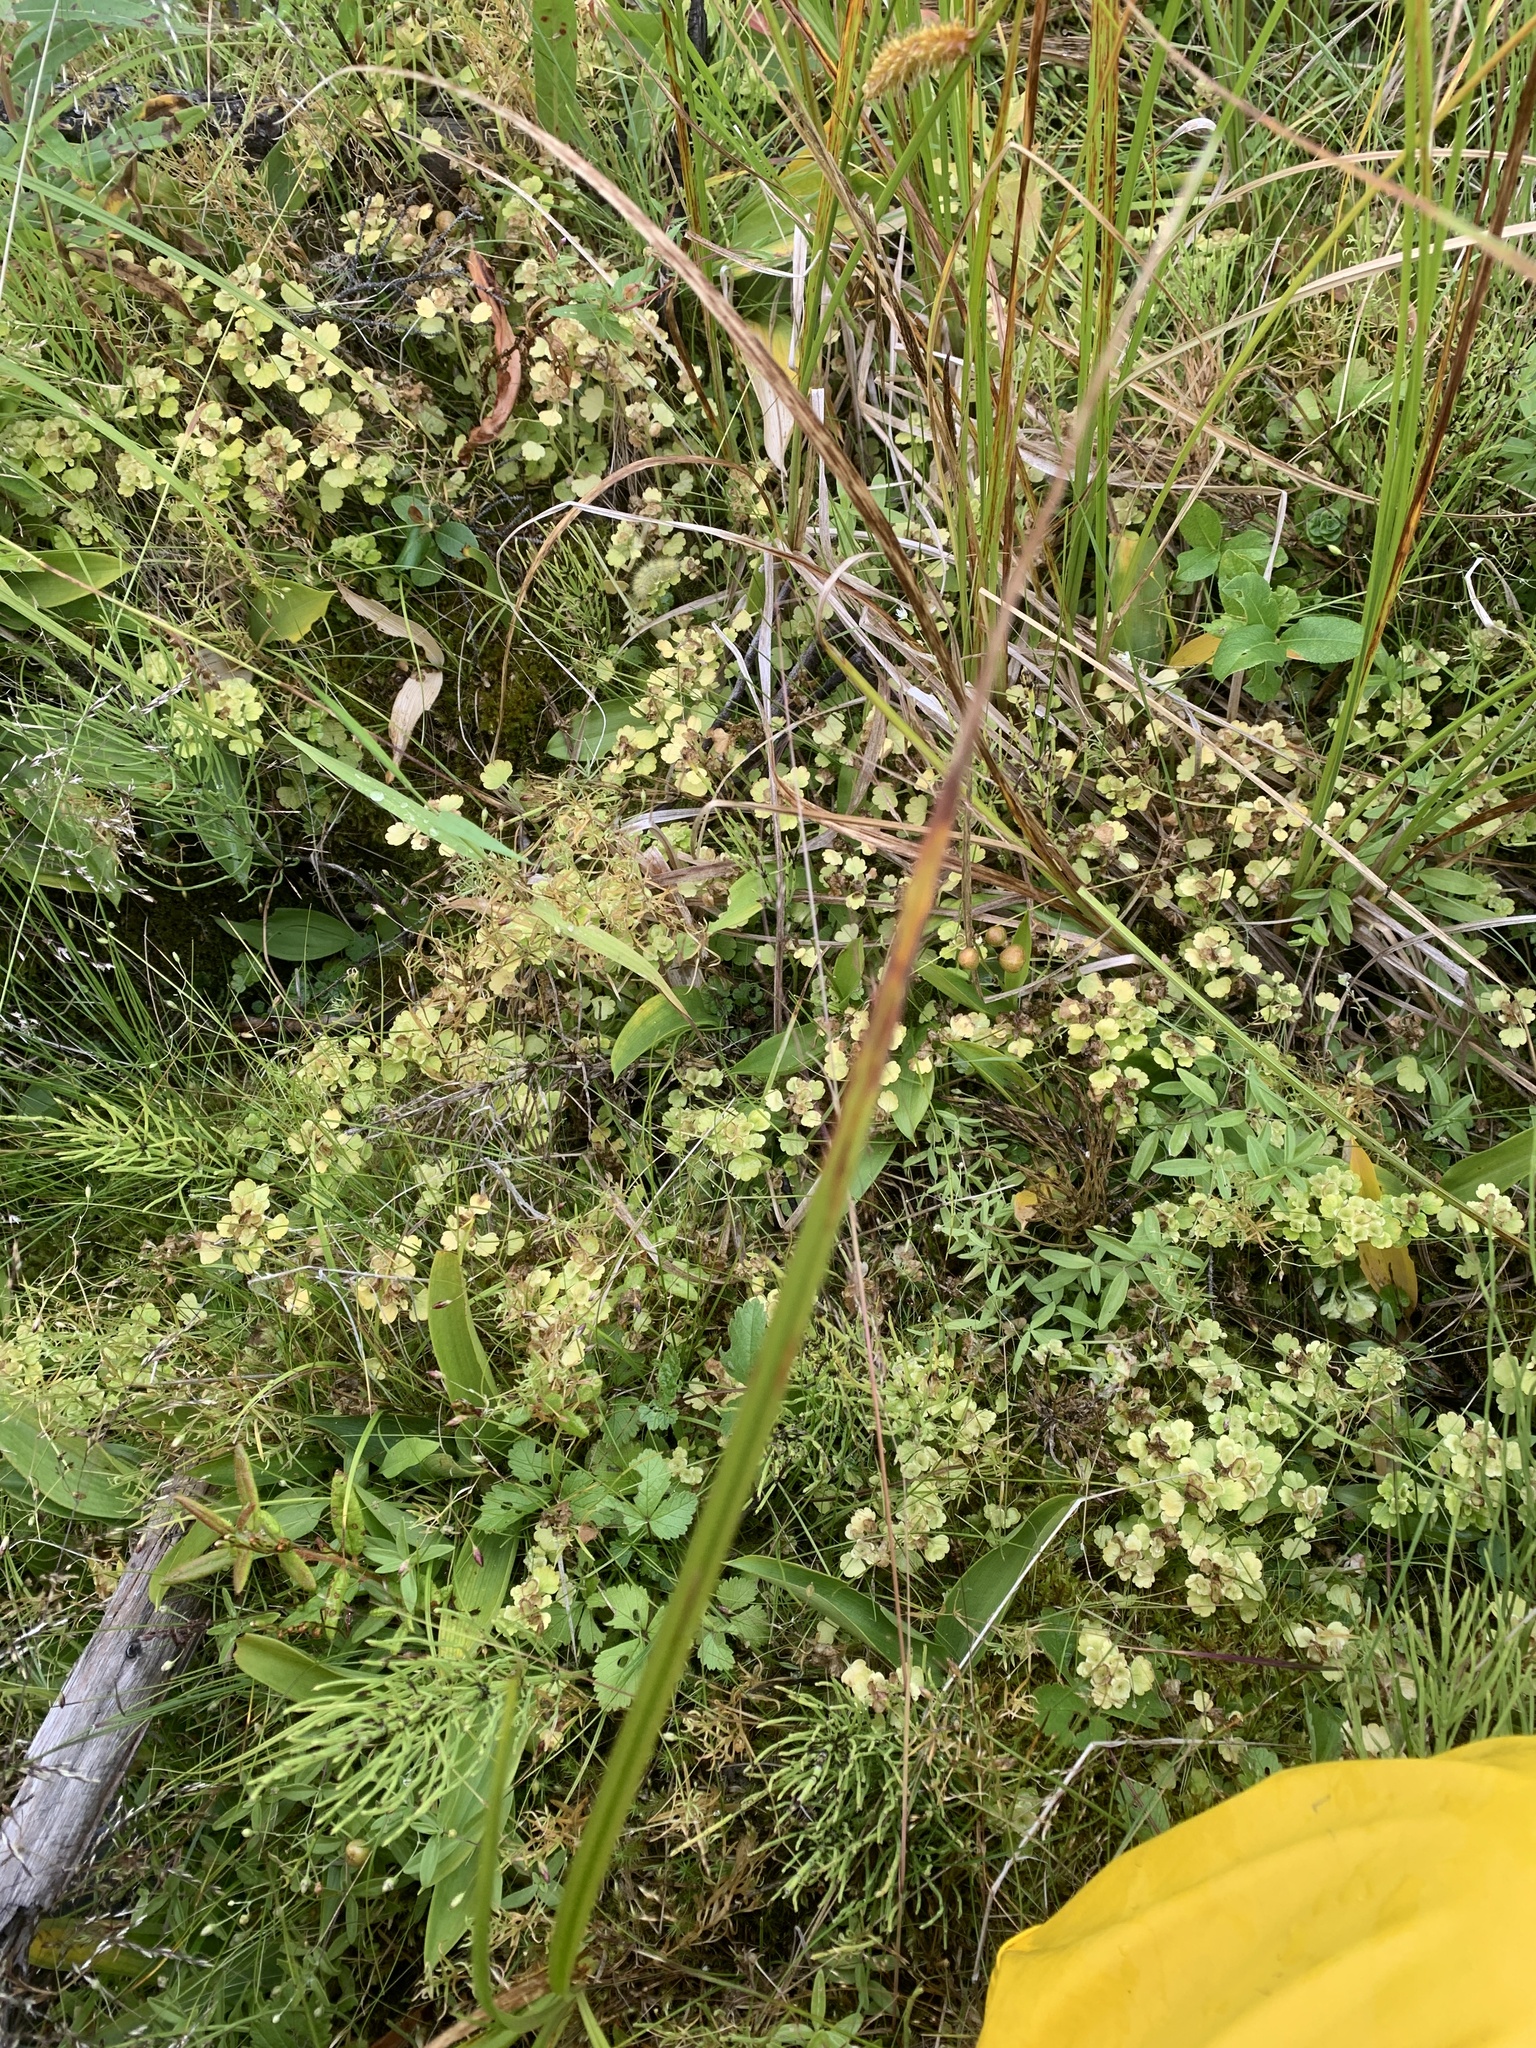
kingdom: Plantae
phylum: Tracheophyta
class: Magnoliopsida
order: Saxifragales
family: Saxifragaceae
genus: Chrysosplenium
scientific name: Chrysosplenium tetrandrum
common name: Green saxifrage
